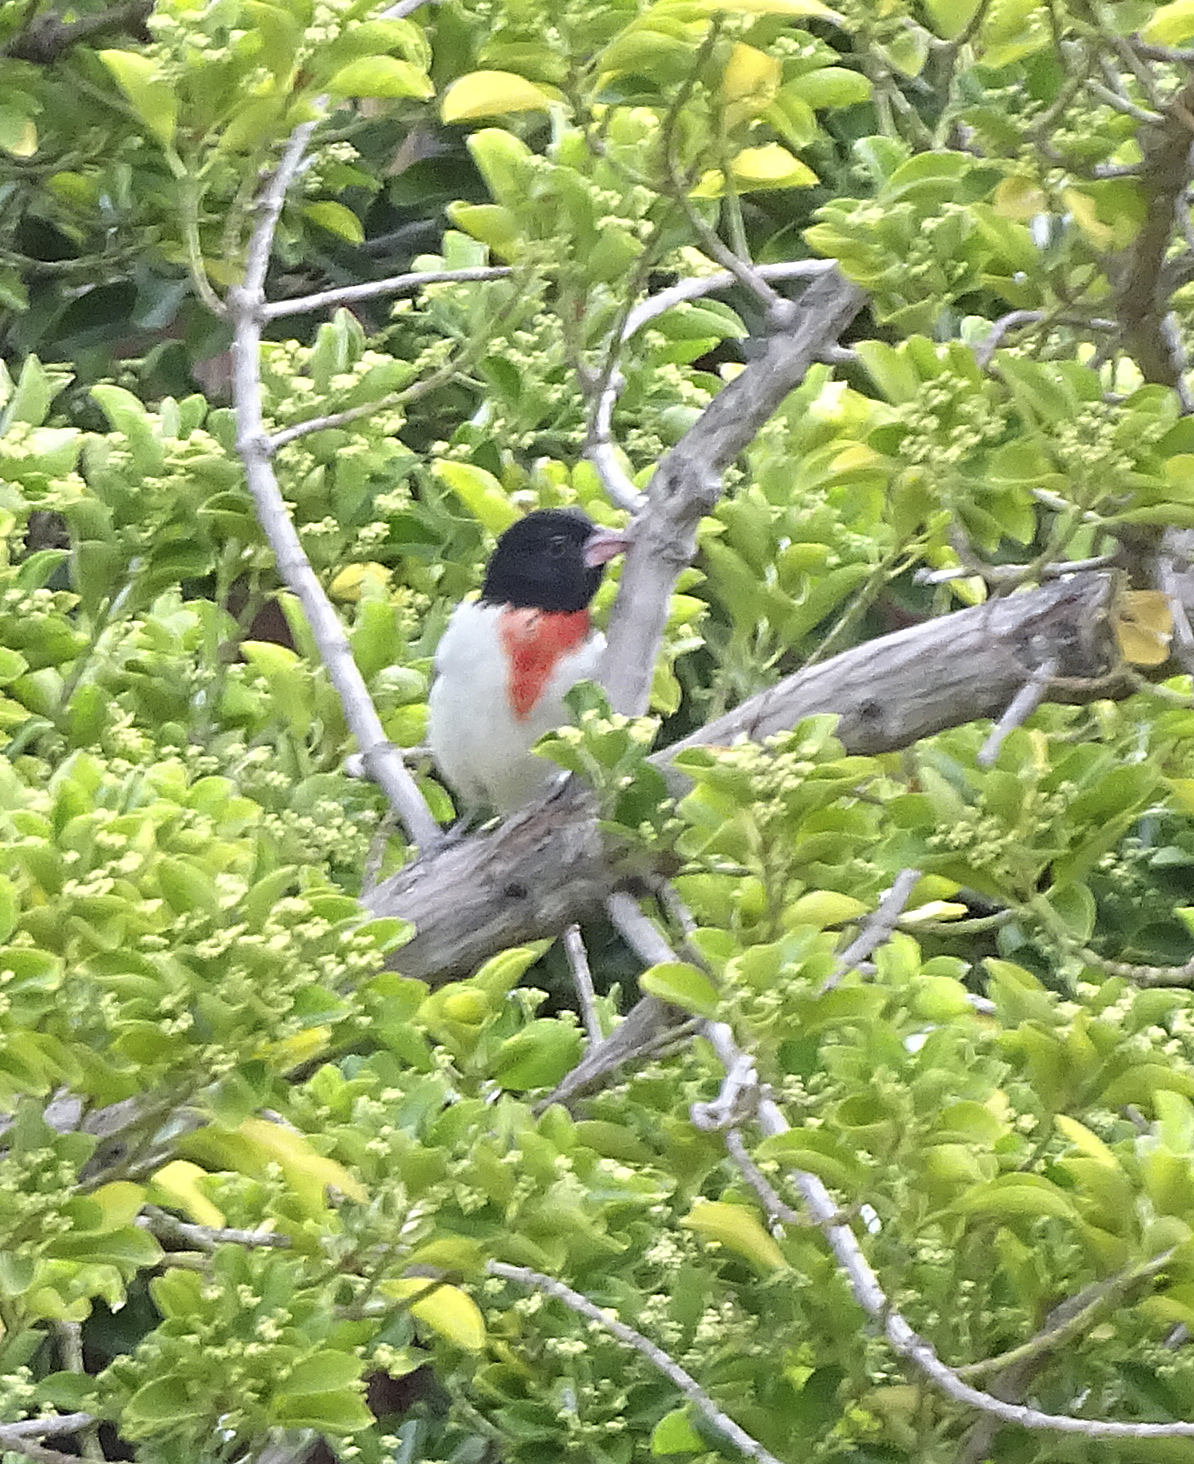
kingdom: Animalia
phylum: Chordata
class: Aves
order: Passeriformes
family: Cardinalidae
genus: Pheucticus
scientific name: Pheucticus ludovicianus
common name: Rose-breasted grosbeak
